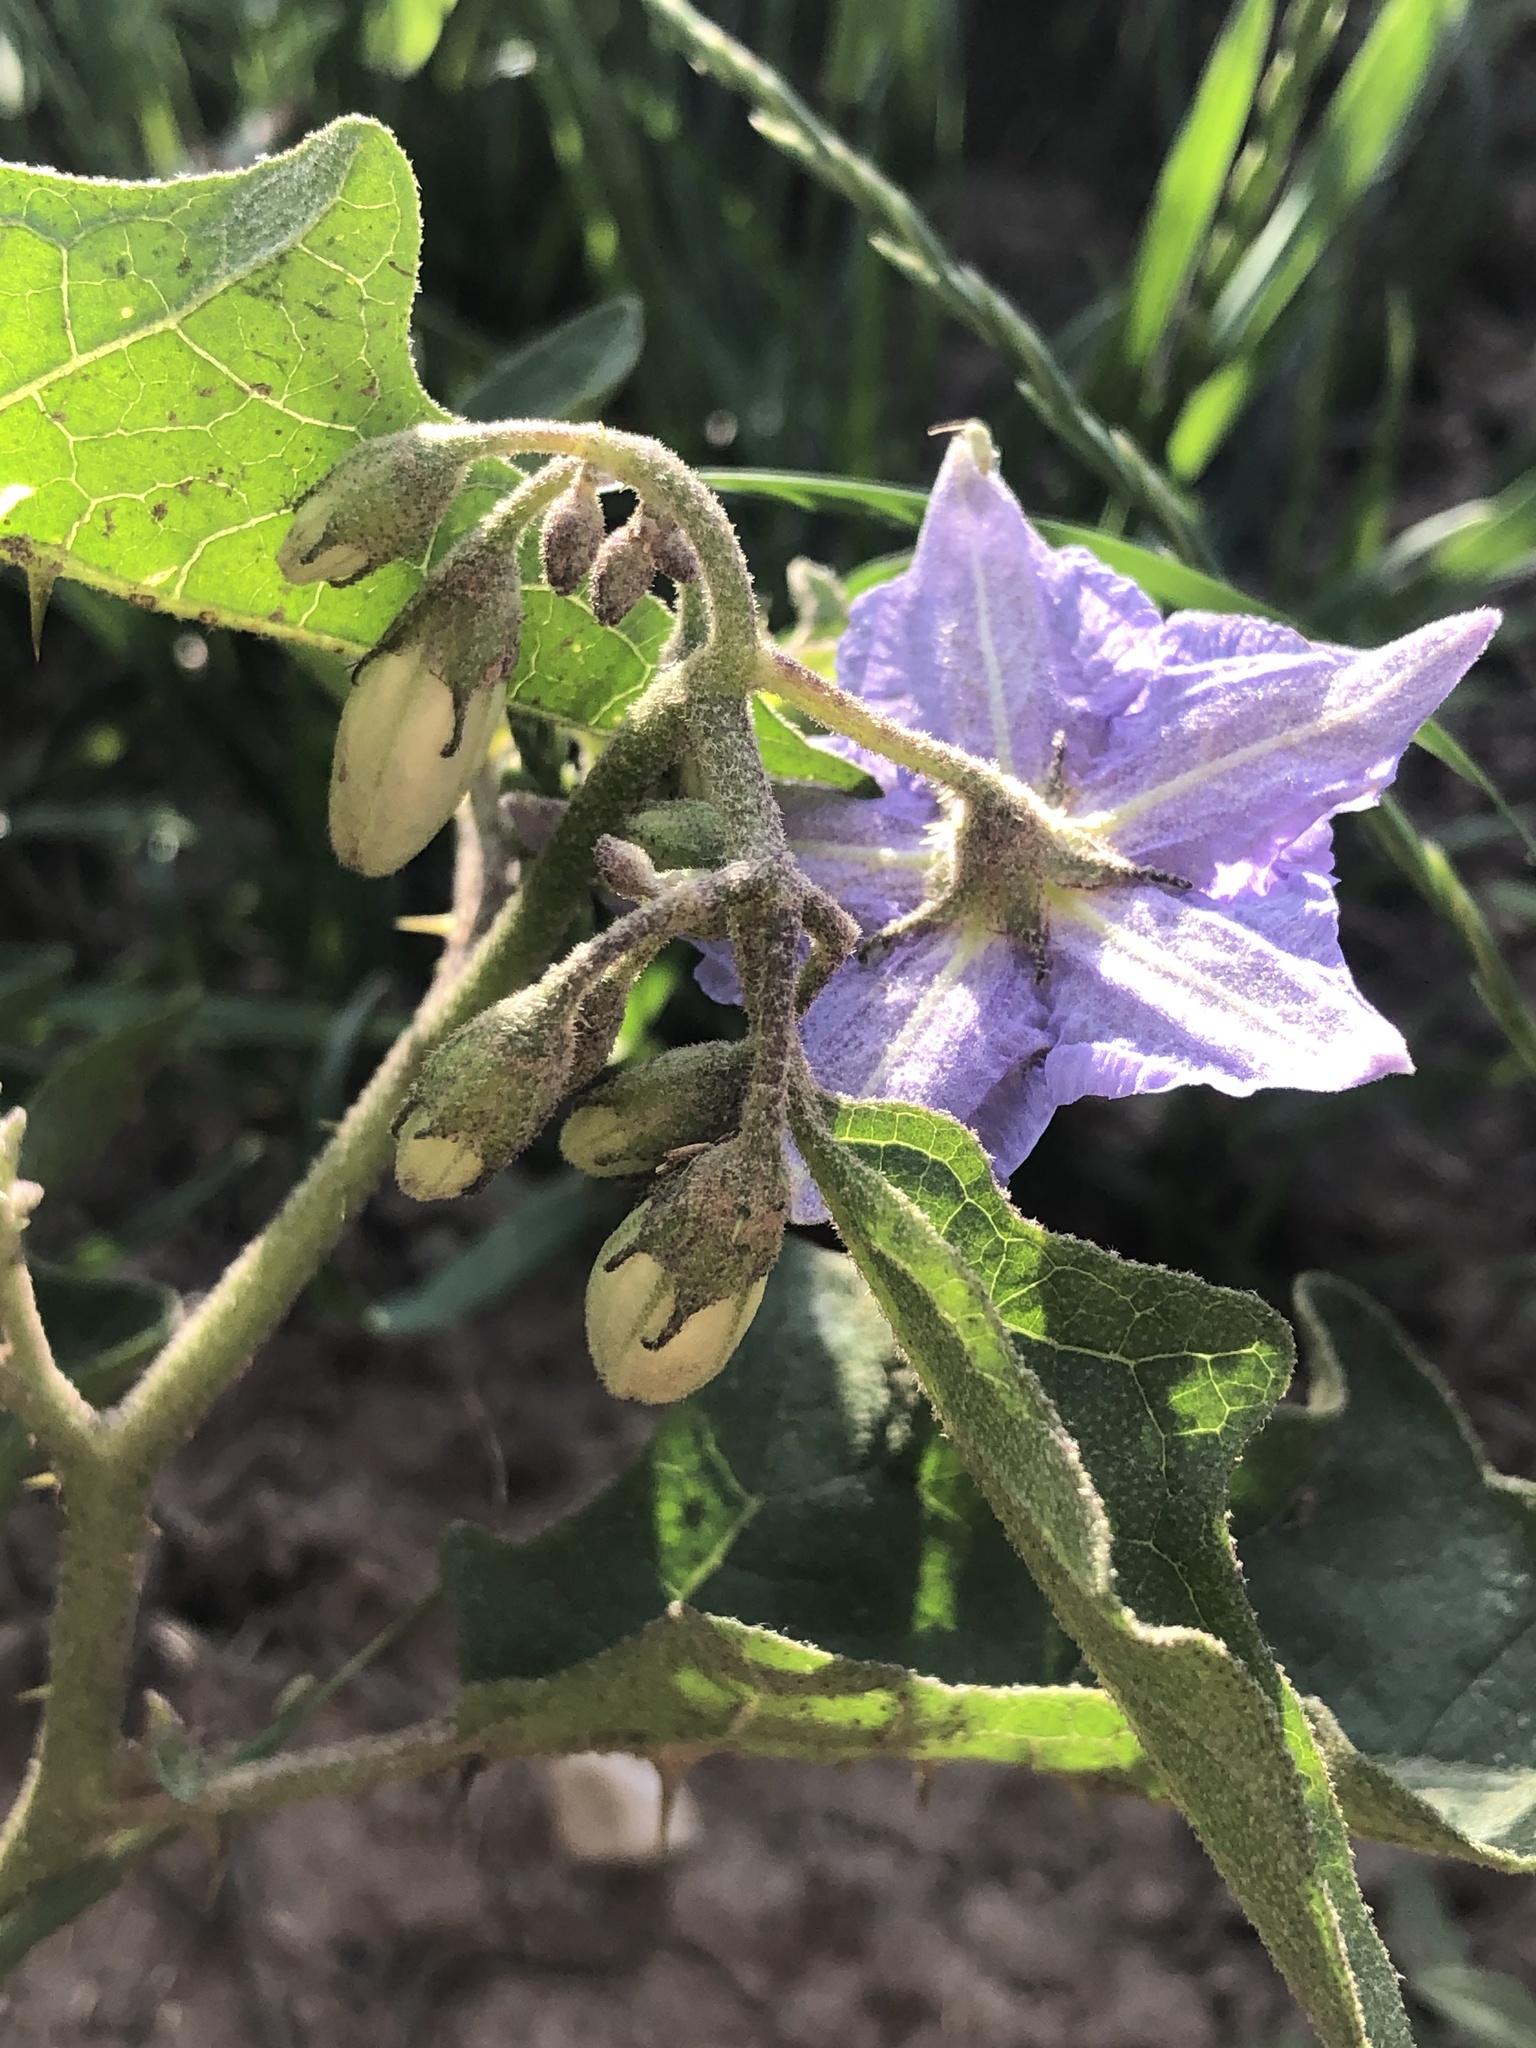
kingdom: Plantae
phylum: Tracheophyta
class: Magnoliopsida
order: Solanales
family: Solanaceae
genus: Solanum
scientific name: Solanum dimidiatum
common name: Carolina horse-nettle
